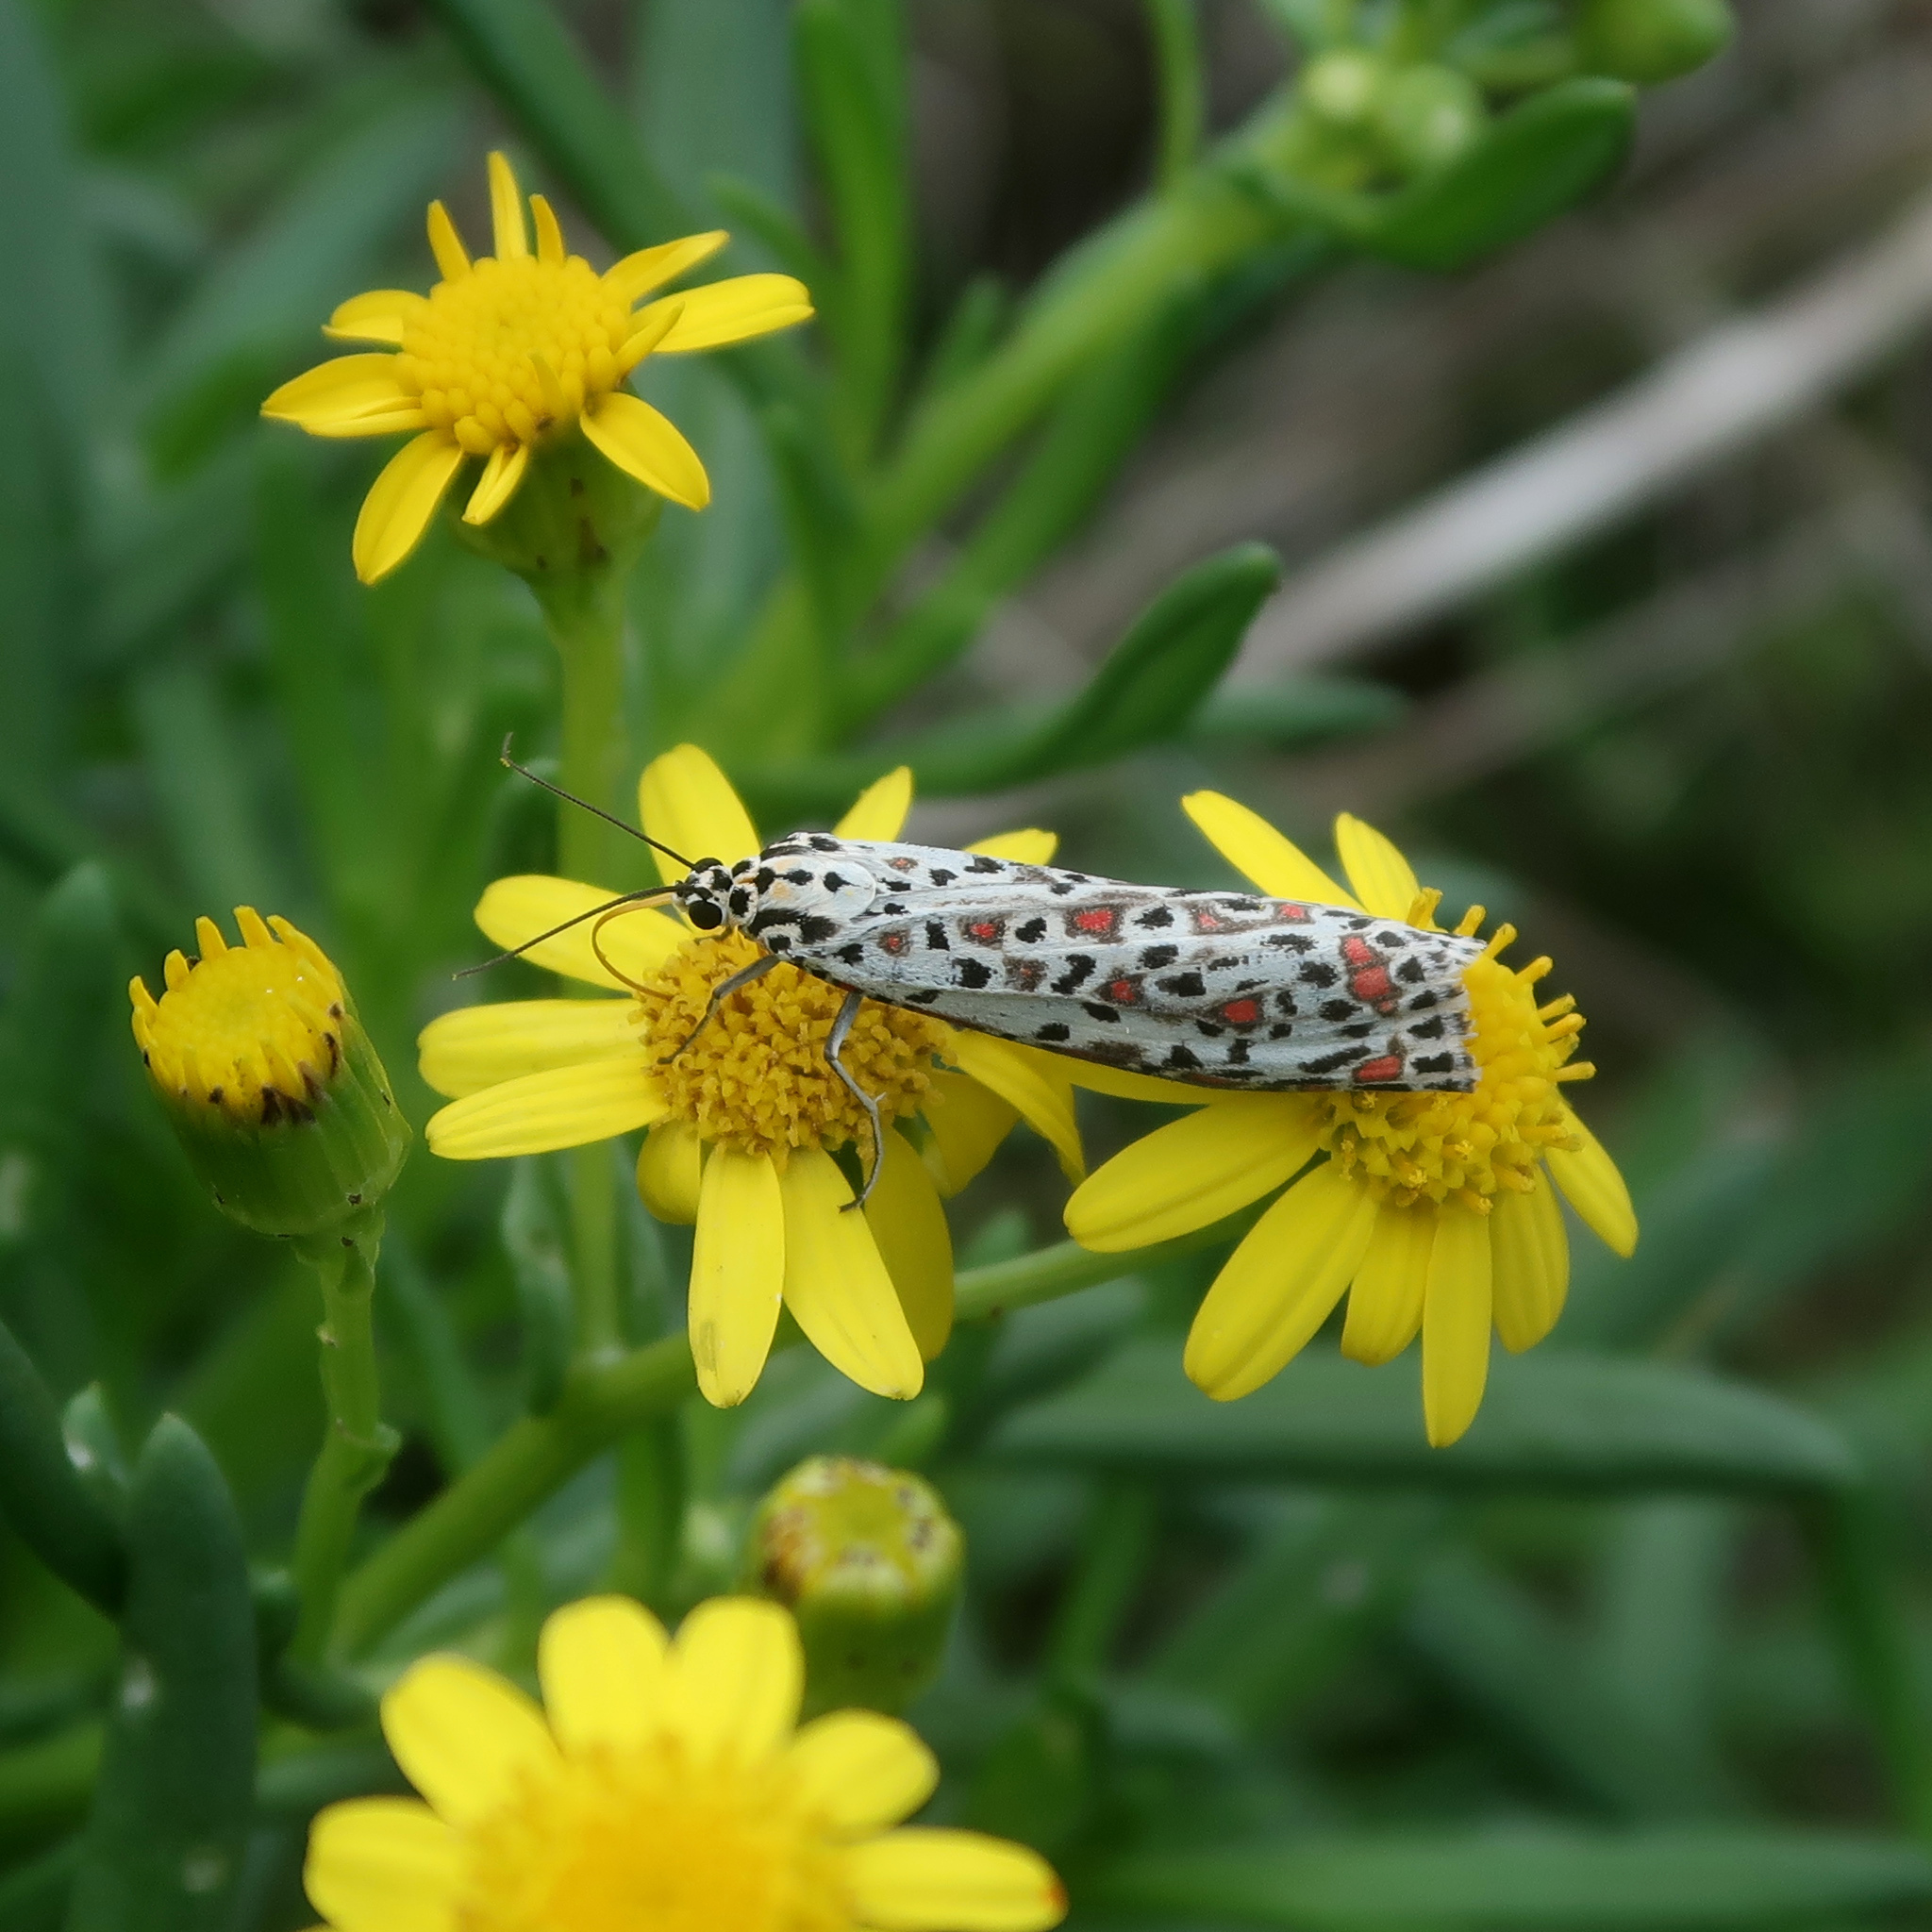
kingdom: Animalia
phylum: Arthropoda
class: Insecta
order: Lepidoptera
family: Erebidae
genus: Utetheisa
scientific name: Utetheisa pulchelloides
